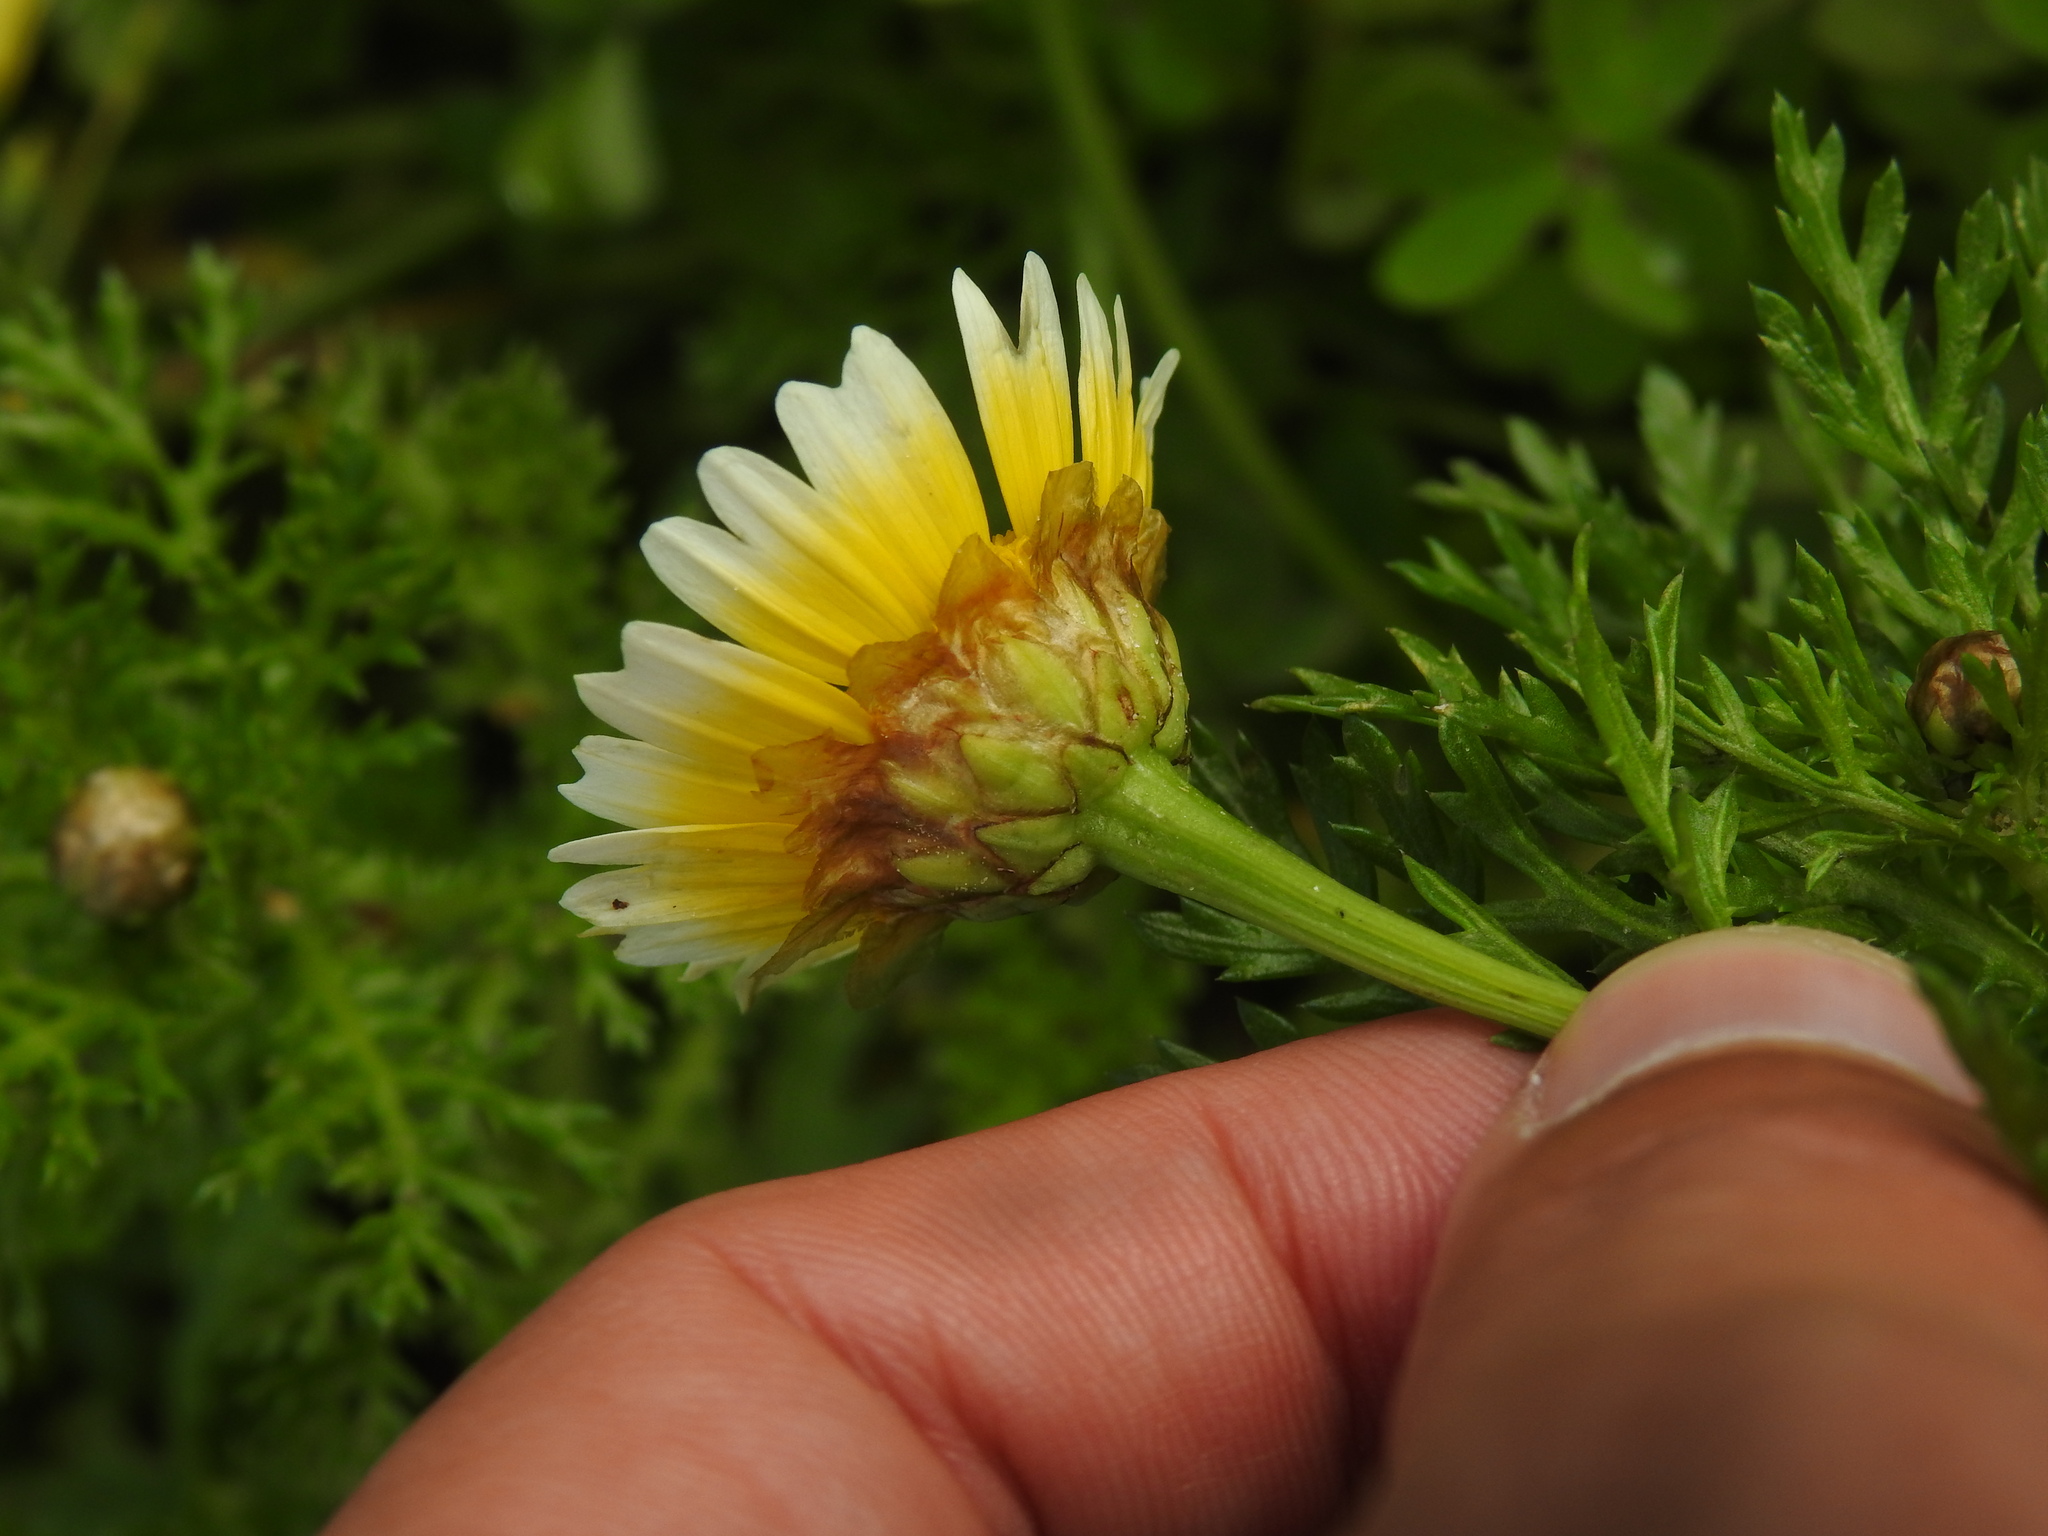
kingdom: Plantae
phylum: Tracheophyta
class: Magnoliopsida
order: Asterales
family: Asteraceae
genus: Glebionis
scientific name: Glebionis coronaria
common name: Crowndaisy
